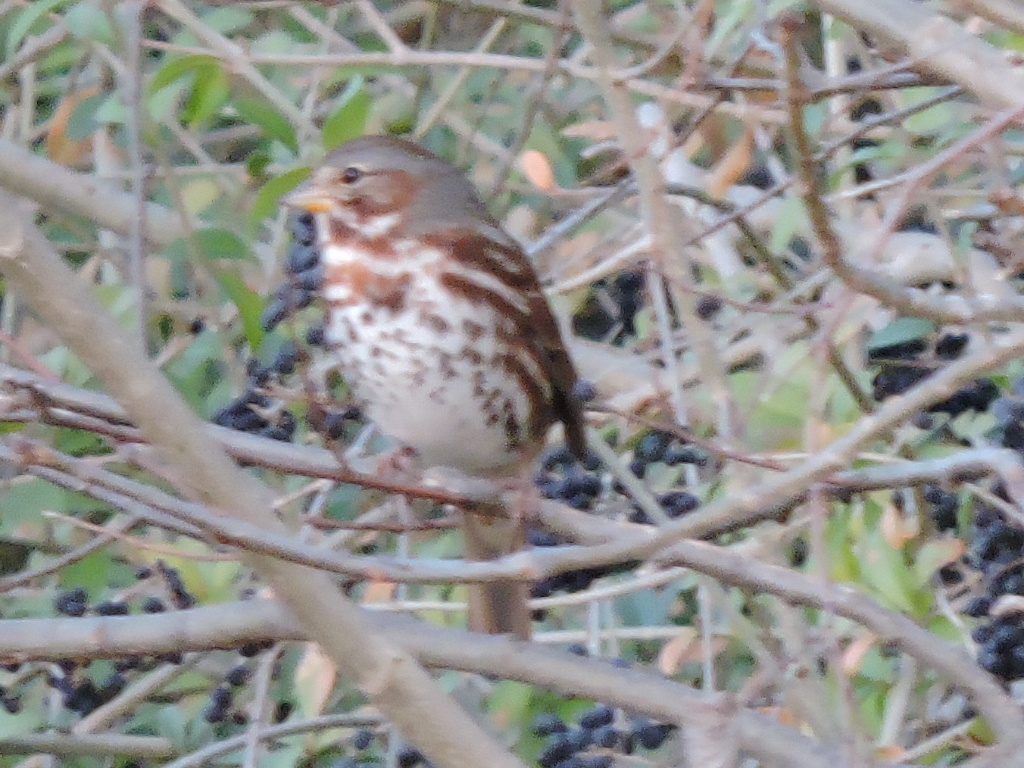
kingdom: Animalia
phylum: Chordata
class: Aves
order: Passeriformes
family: Passerellidae
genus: Passerella
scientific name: Passerella iliaca
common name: Fox sparrow
